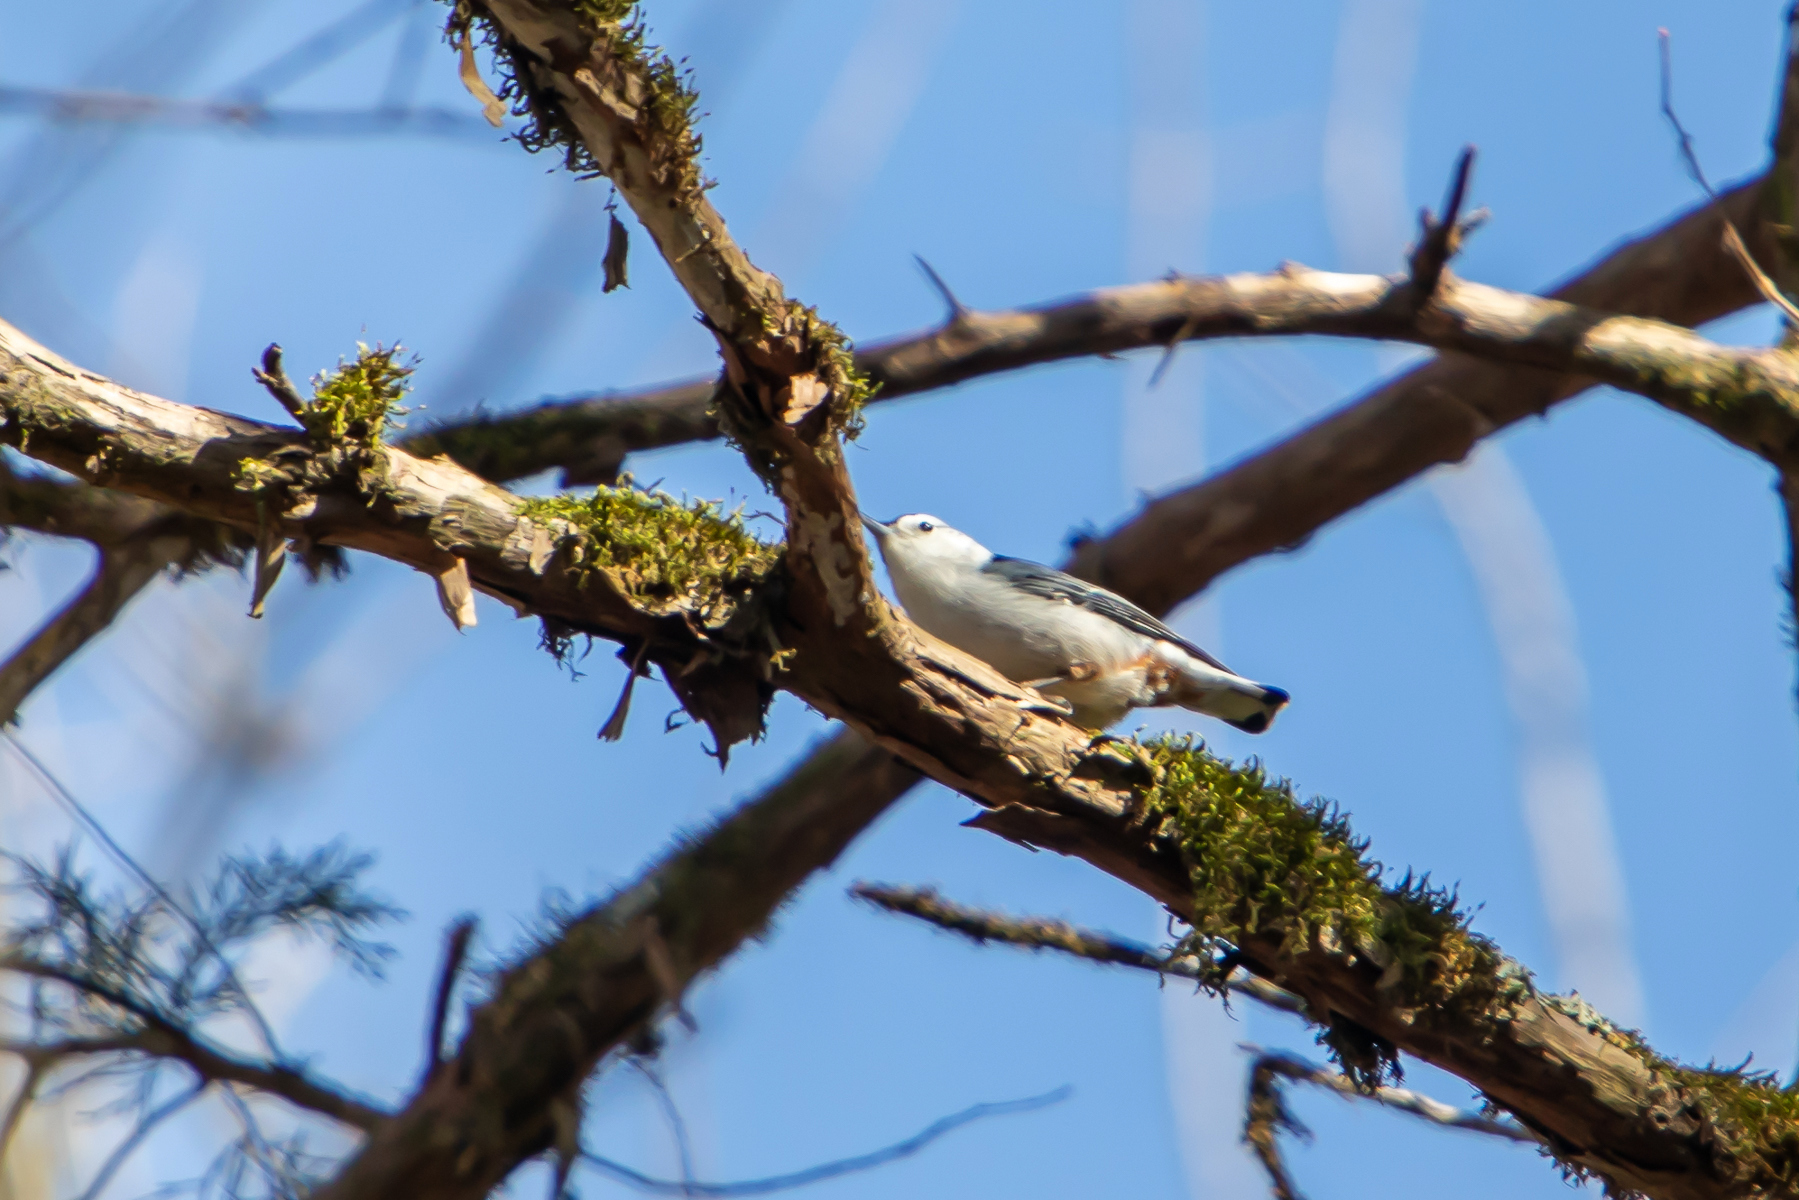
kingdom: Animalia
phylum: Chordata
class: Aves
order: Passeriformes
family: Sittidae
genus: Sitta
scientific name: Sitta carolinensis
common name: White-breasted nuthatch
